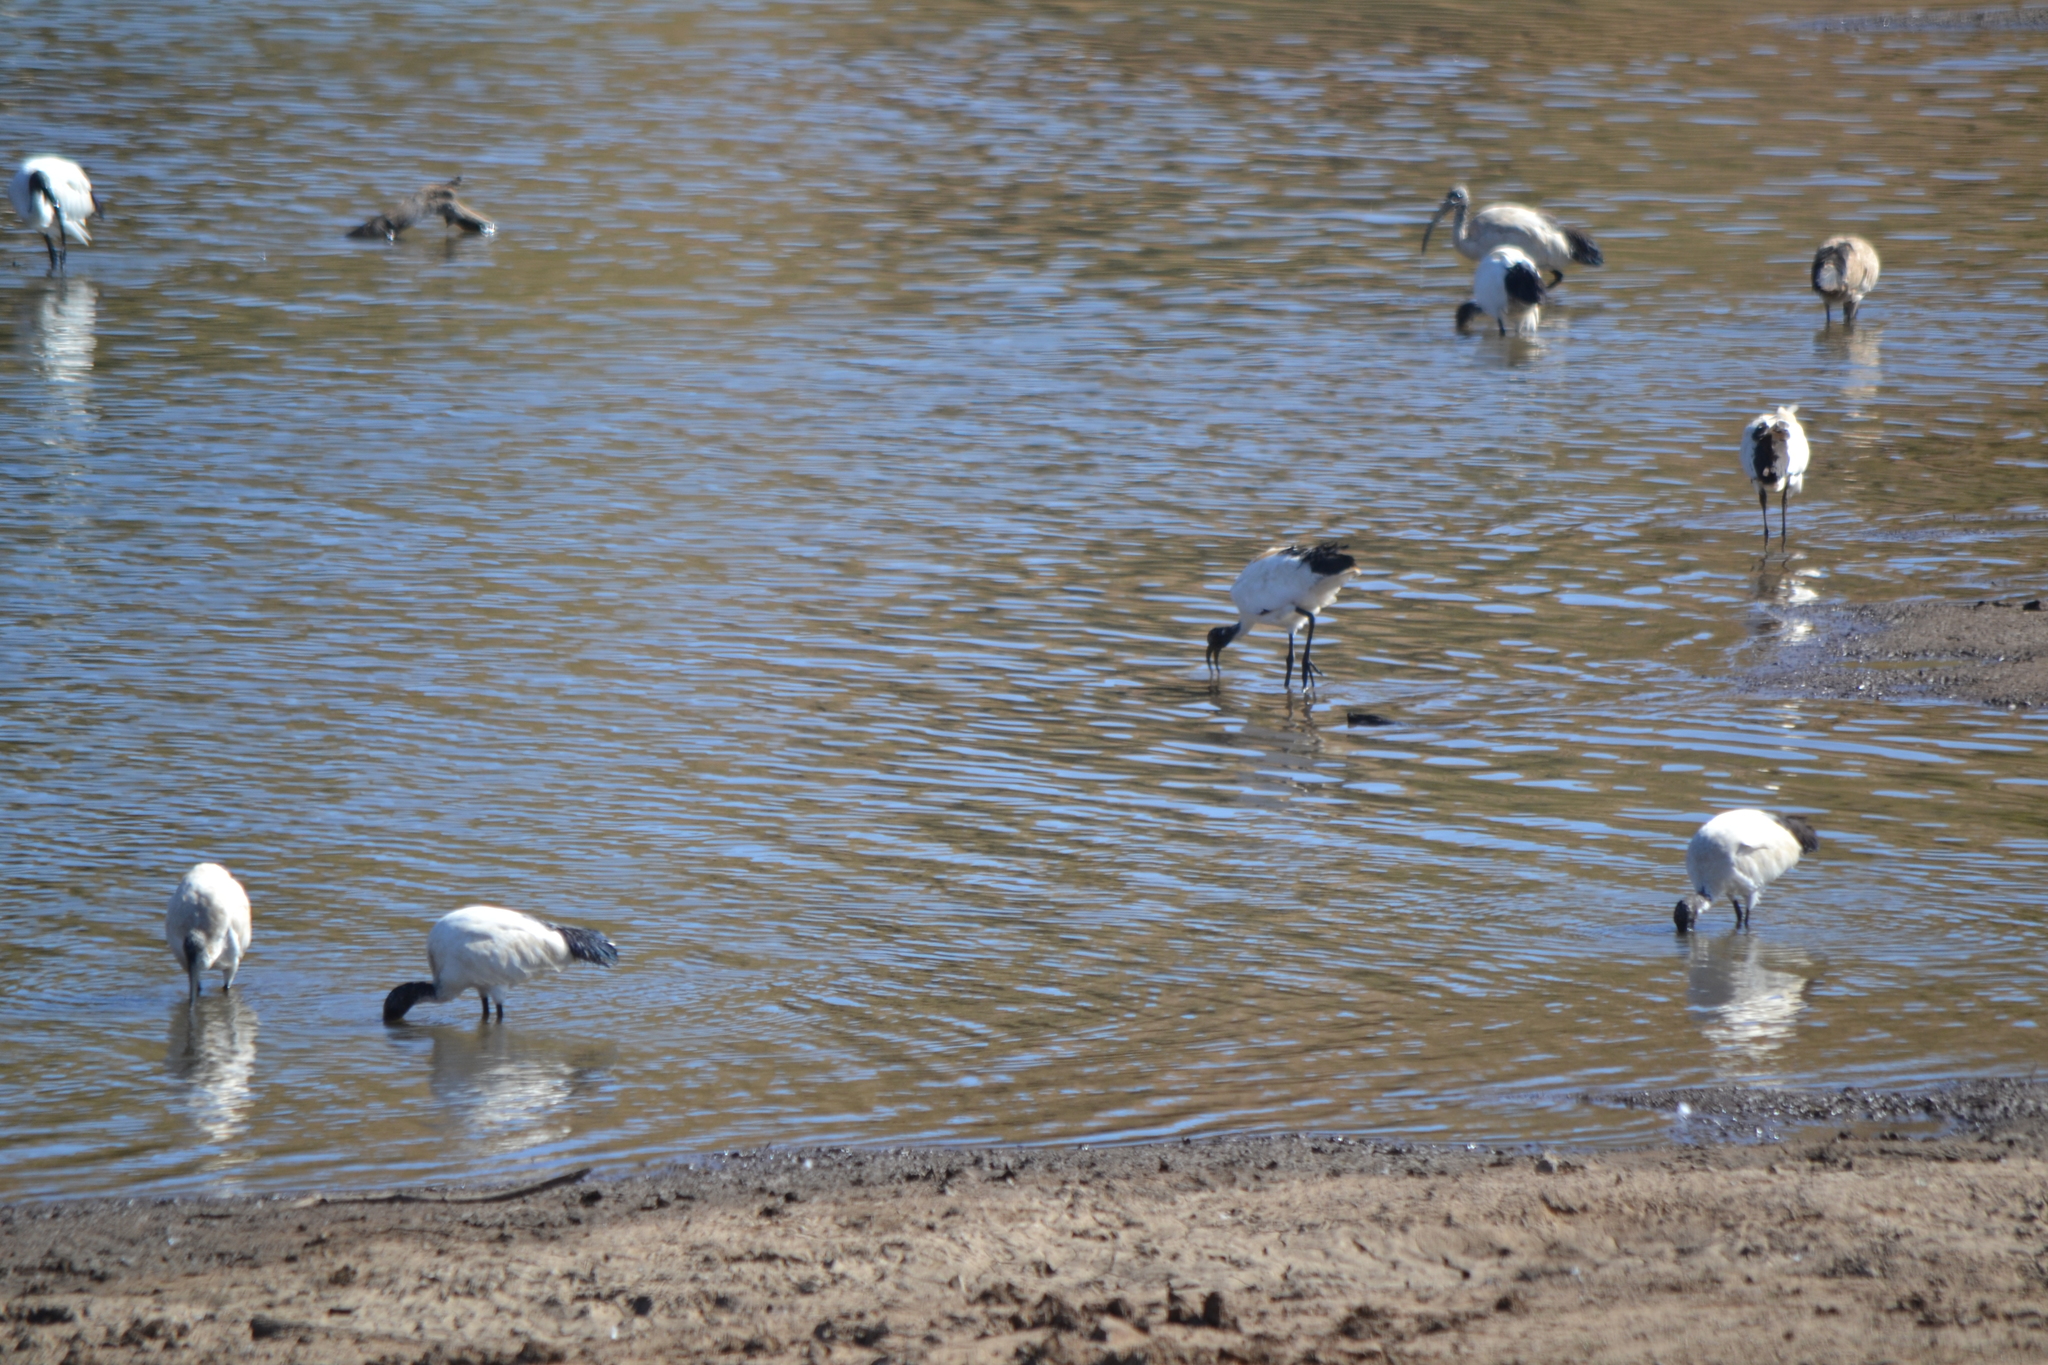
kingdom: Animalia
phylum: Chordata
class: Aves
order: Pelecaniformes
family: Threskiornithidae
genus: Threskiornis
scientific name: Threskiornis aethiopicus
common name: Sacred ibis
